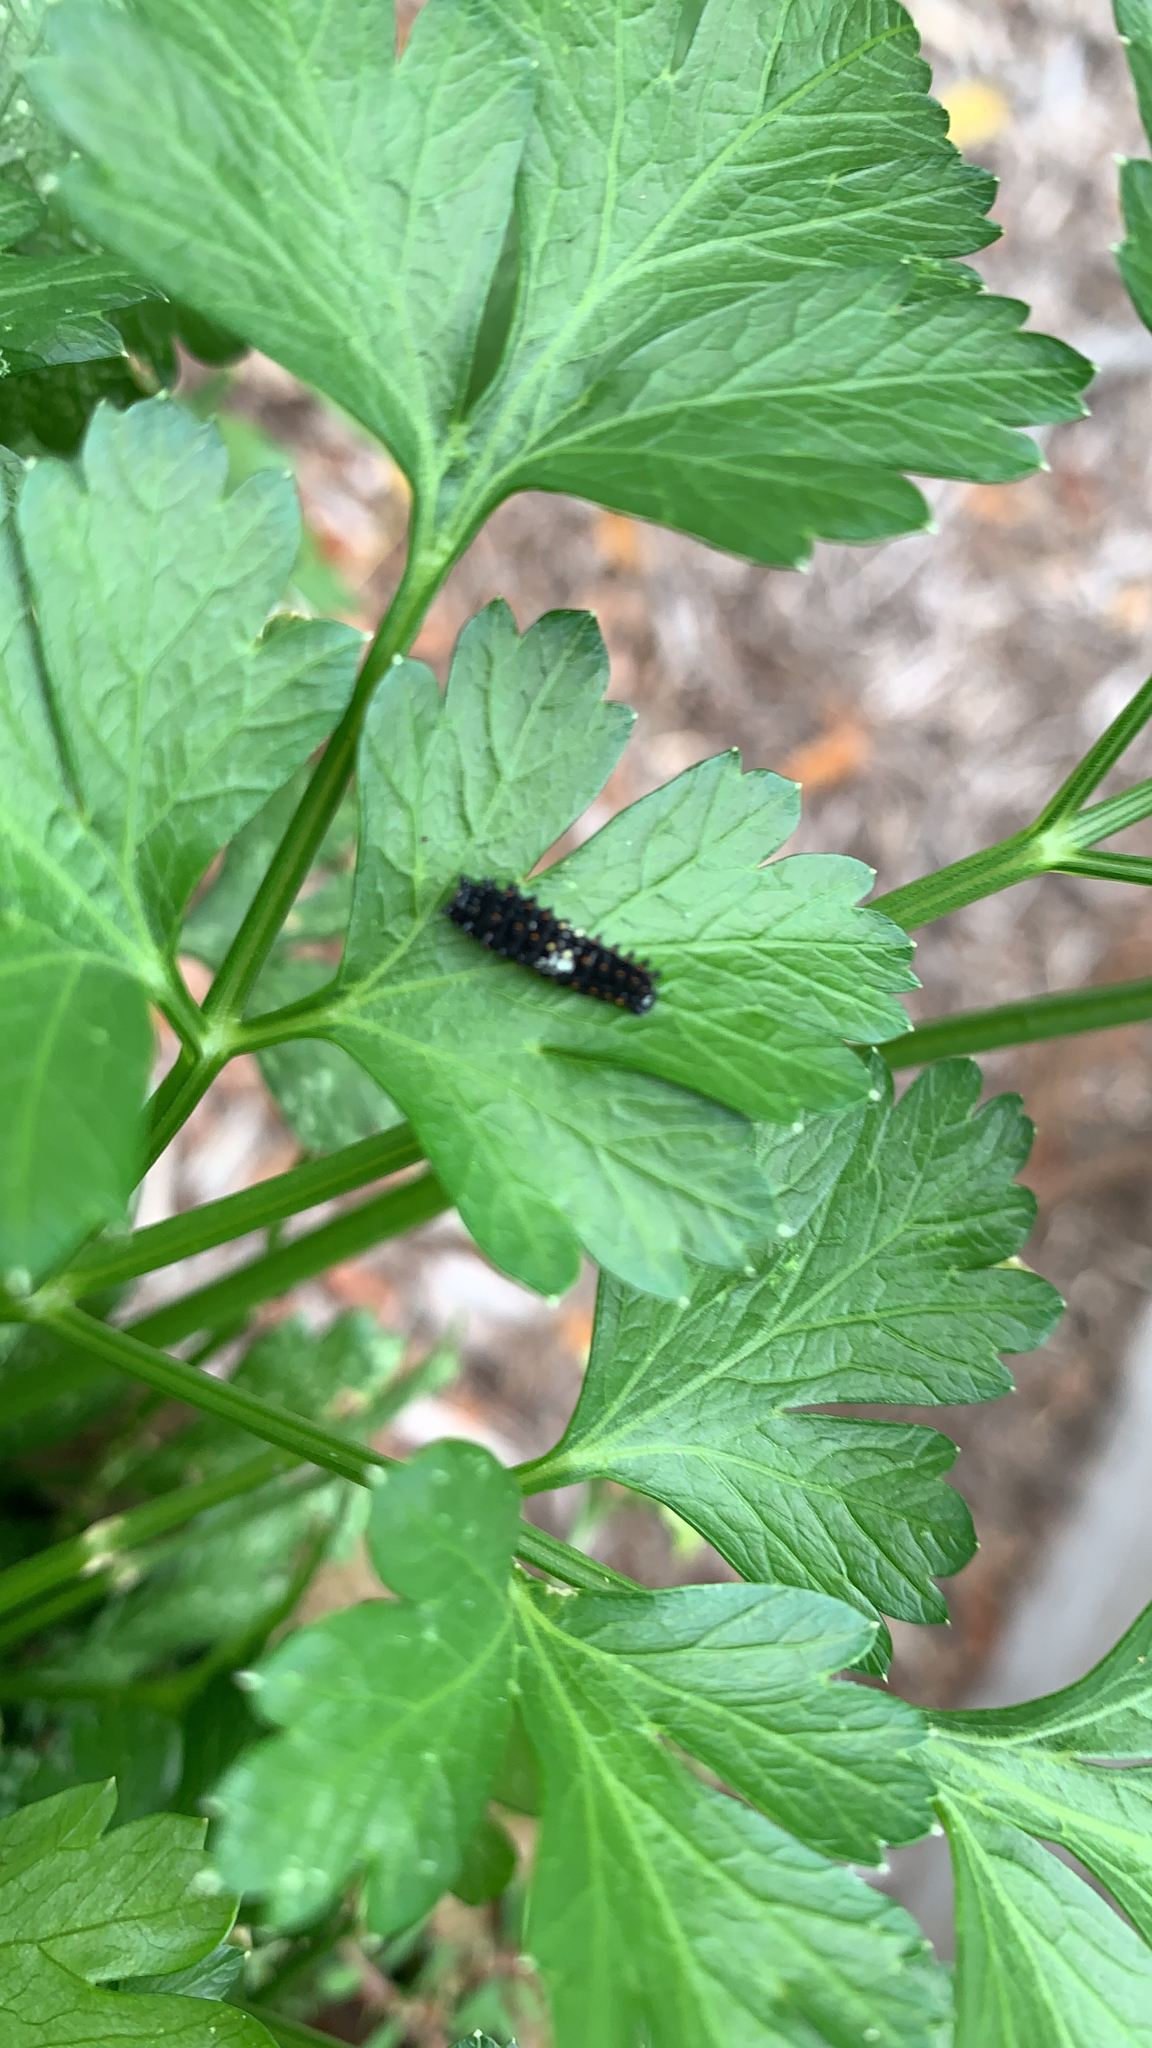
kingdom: Animalia
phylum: Arthropoda
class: Insecta
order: Lepidoptera
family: Papilionidae
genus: Papilio
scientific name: Papilio polyxenes
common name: Black swallowtail
